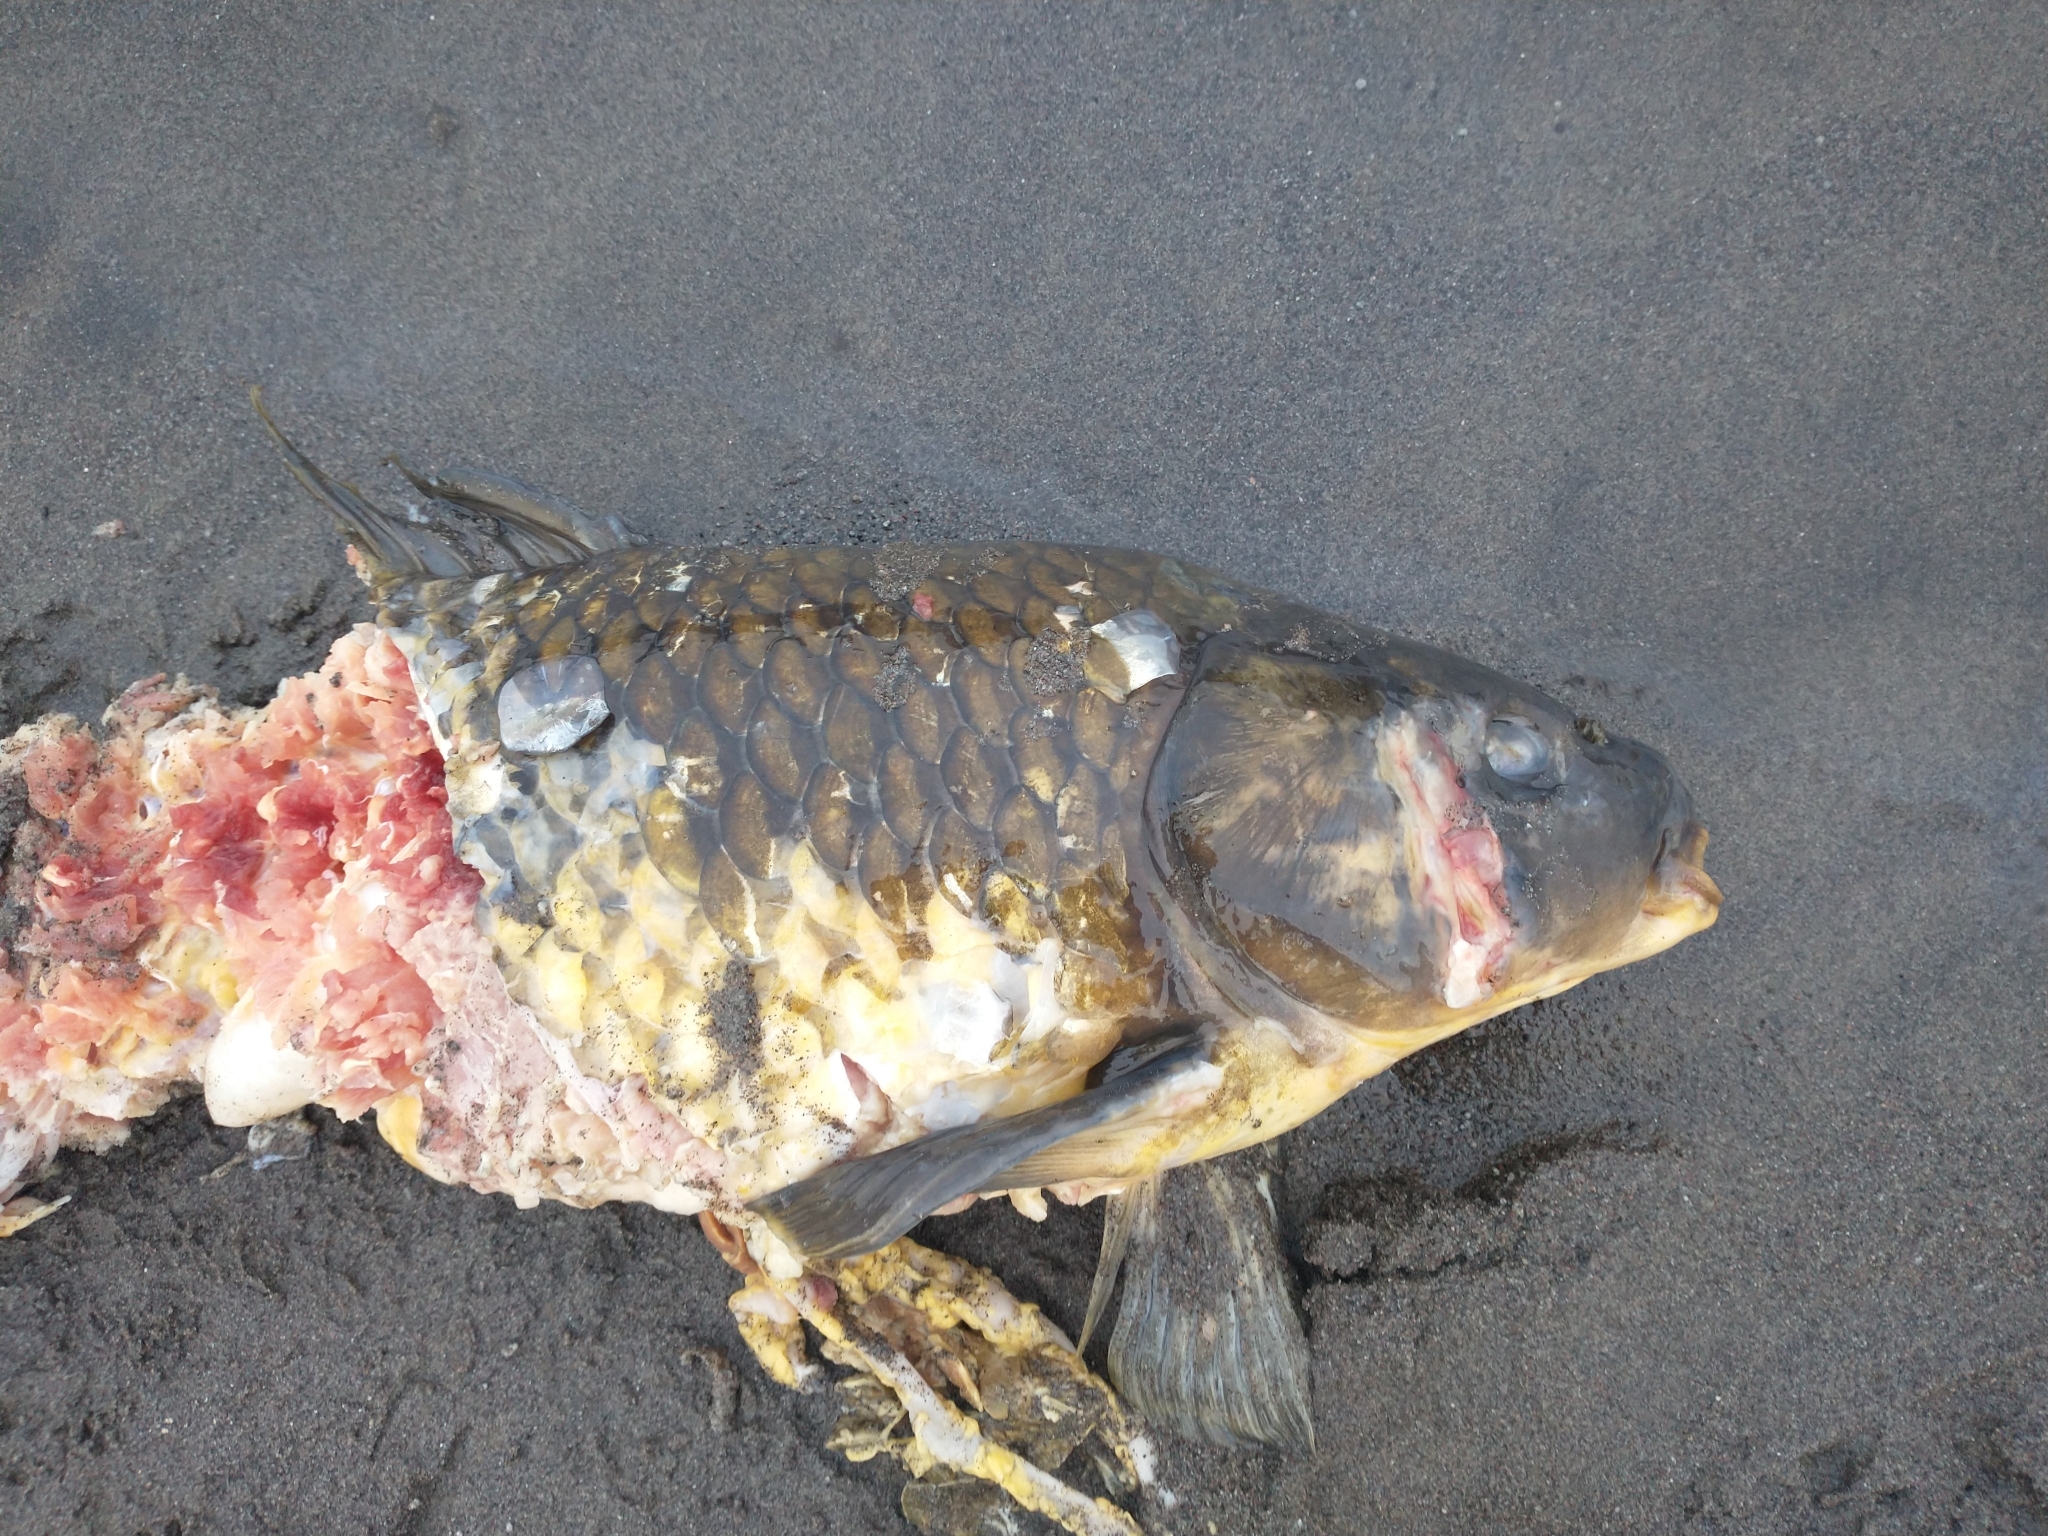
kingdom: Animalia
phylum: Chordata
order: Cypriniformes
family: Cyprinidae
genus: Cyprinus
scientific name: Cyprinus carpio
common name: Common carp
